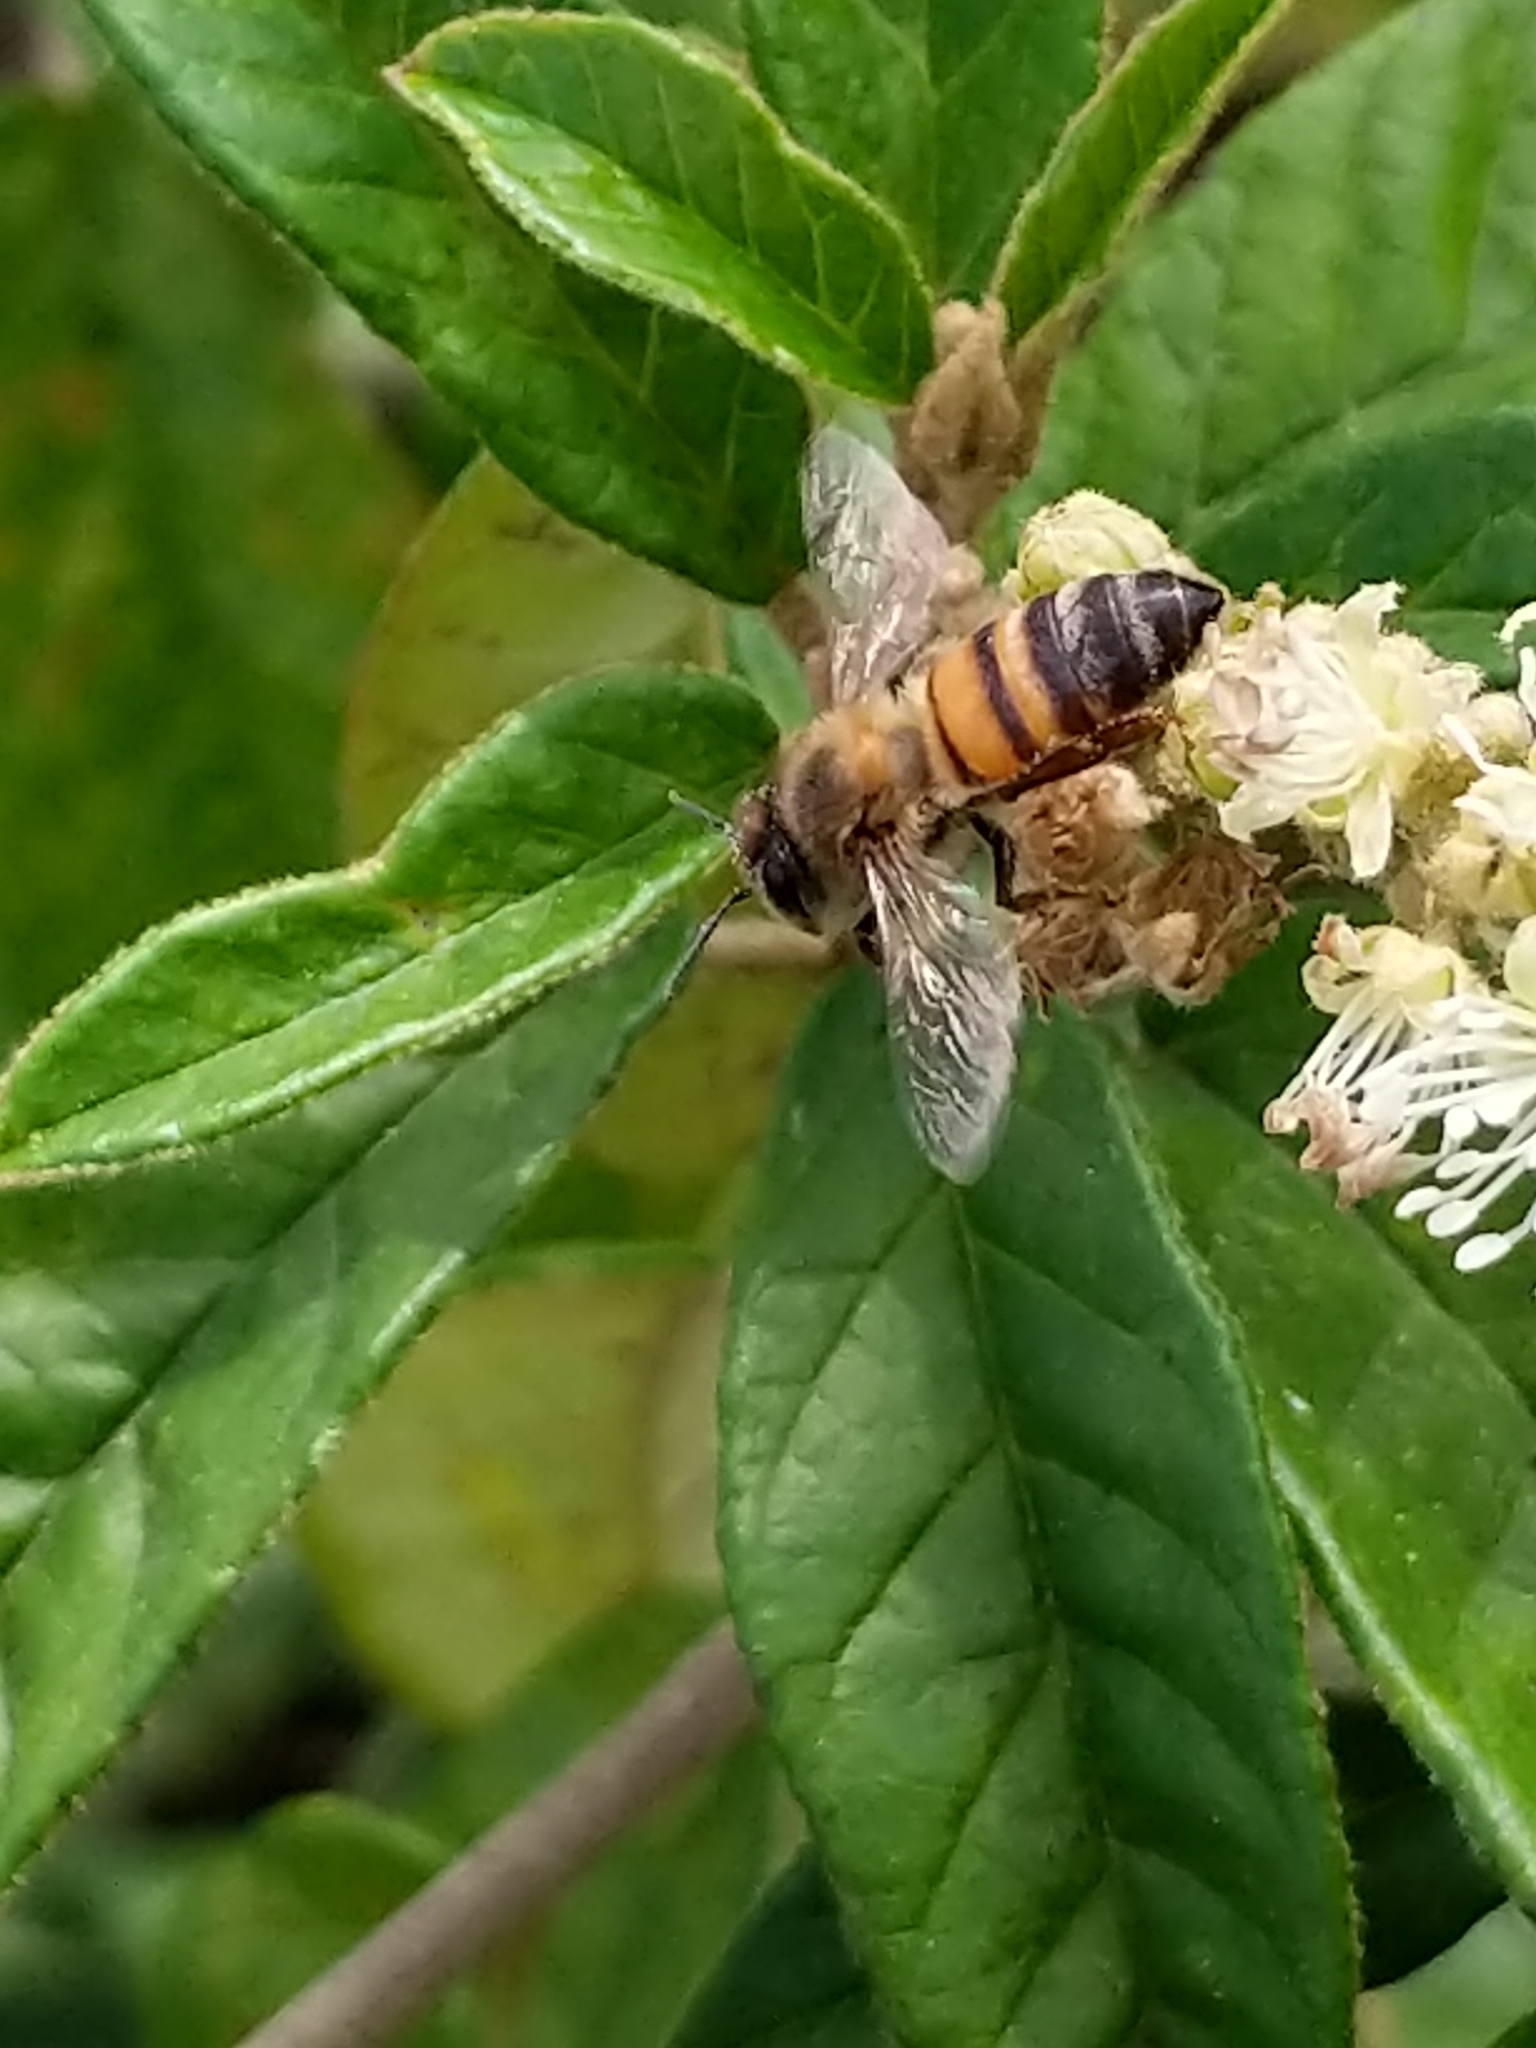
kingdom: Animalia
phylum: Arthropoda
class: Insecta
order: Hymenoptera
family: Apidae
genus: Apis
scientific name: Apis mellifera
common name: Honey bee
